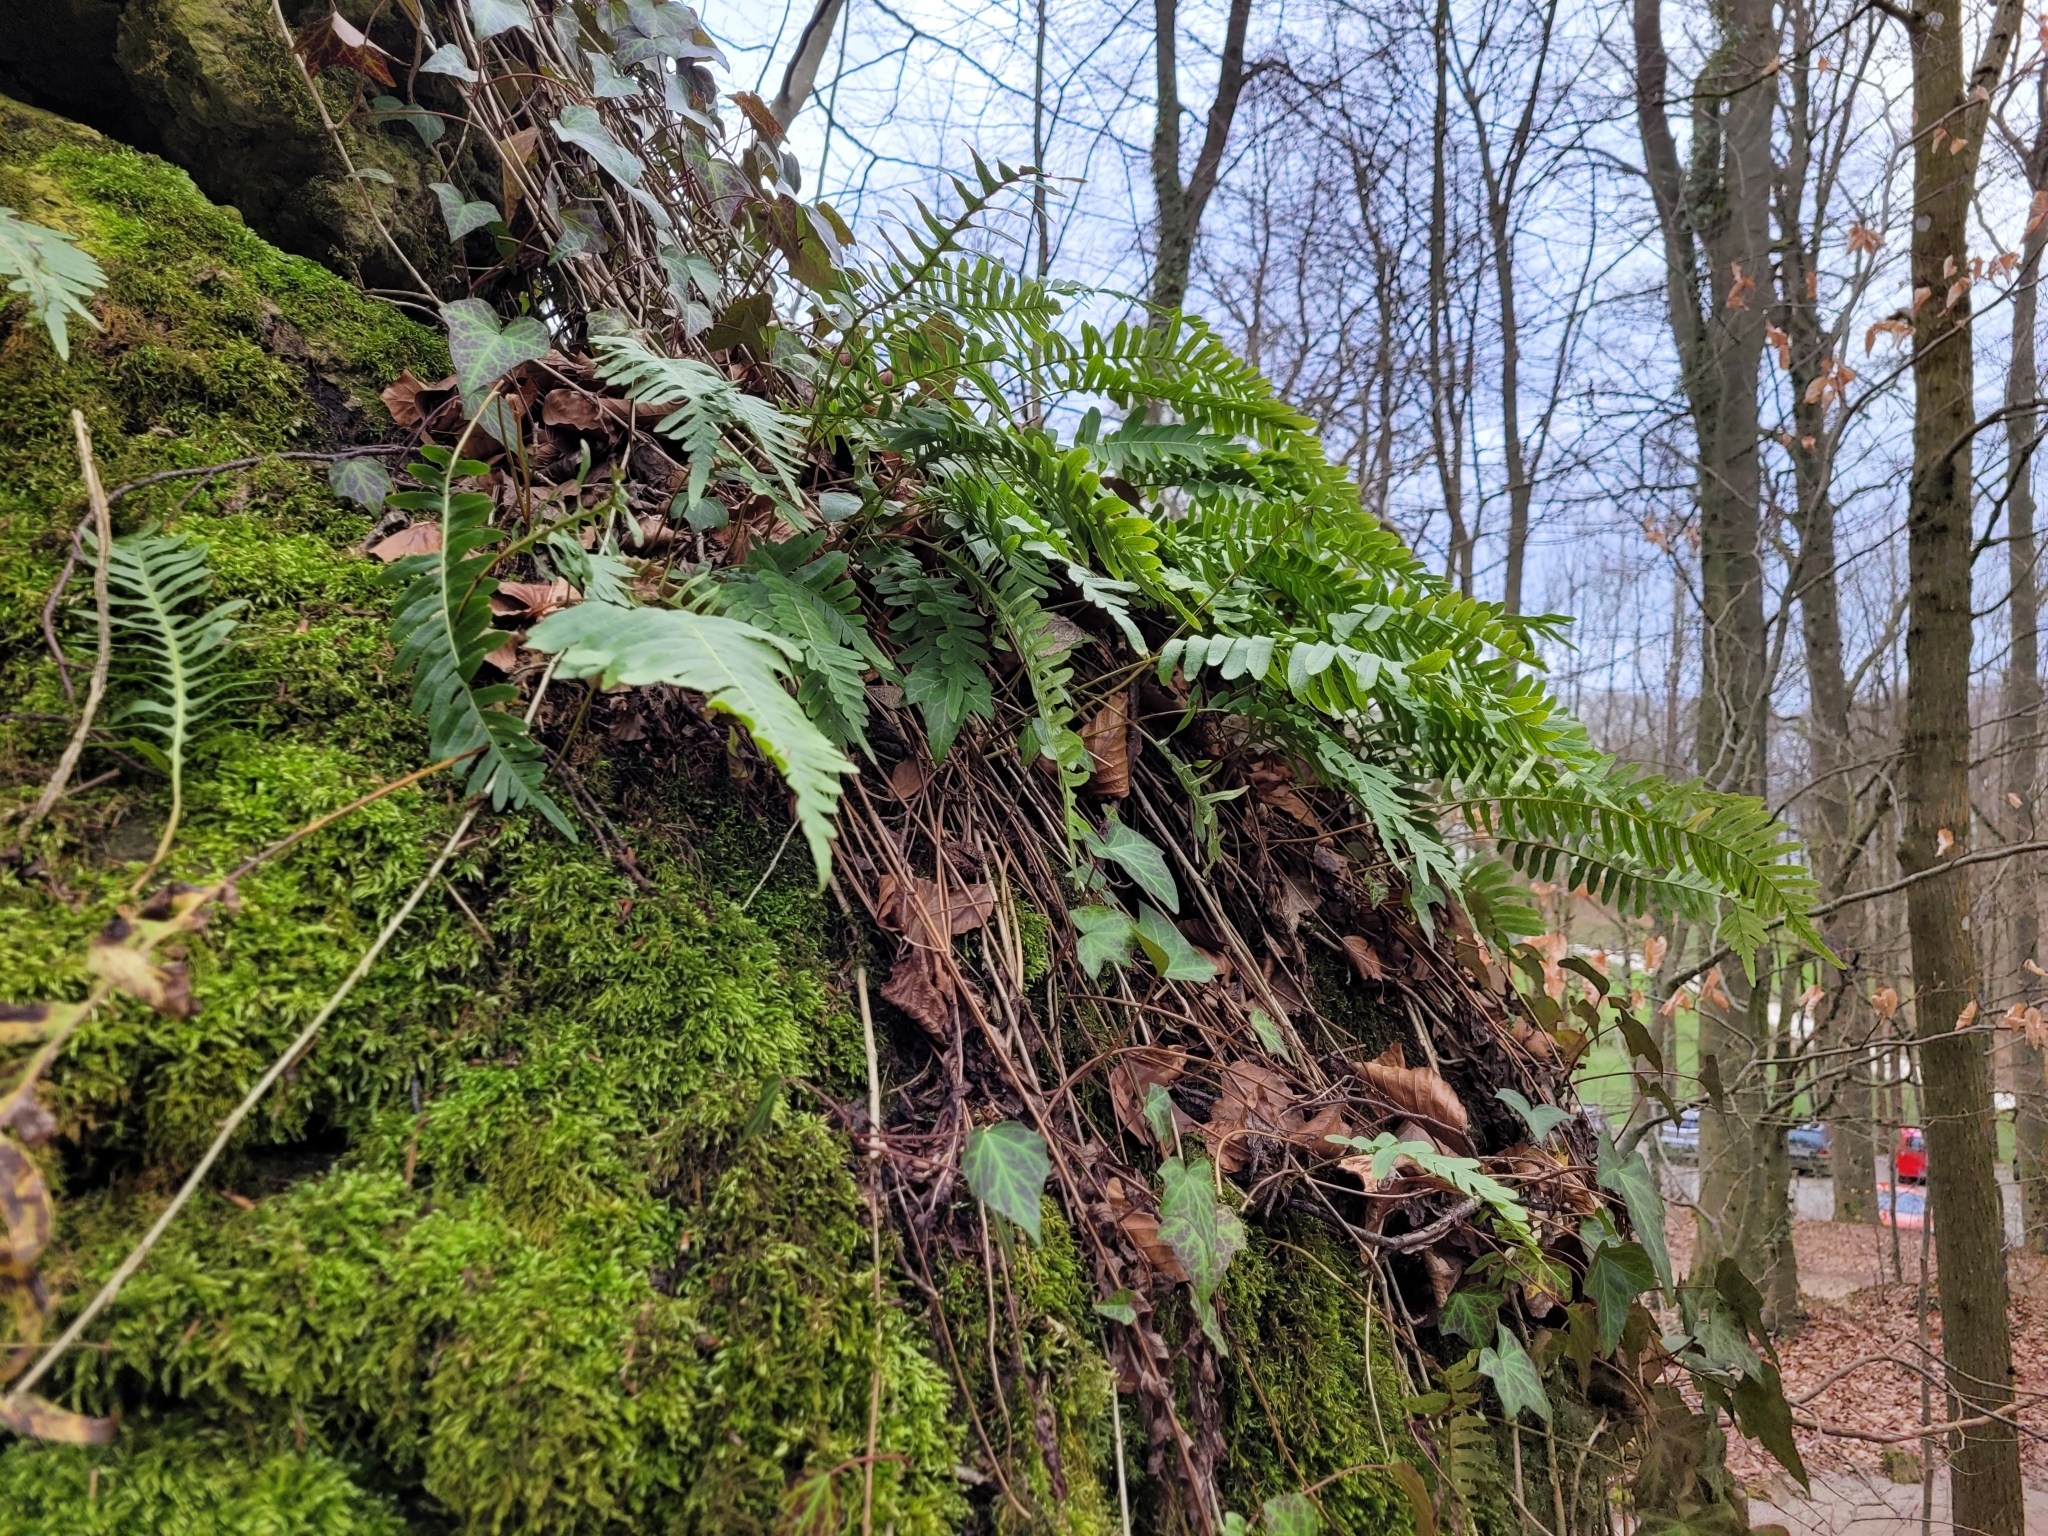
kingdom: Plantae
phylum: Tracheophyta
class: Polypodiopsida
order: Polypodiales
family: Polypodiaceae
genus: Polypodium
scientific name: Polypodium vulgare
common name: Common polypody
